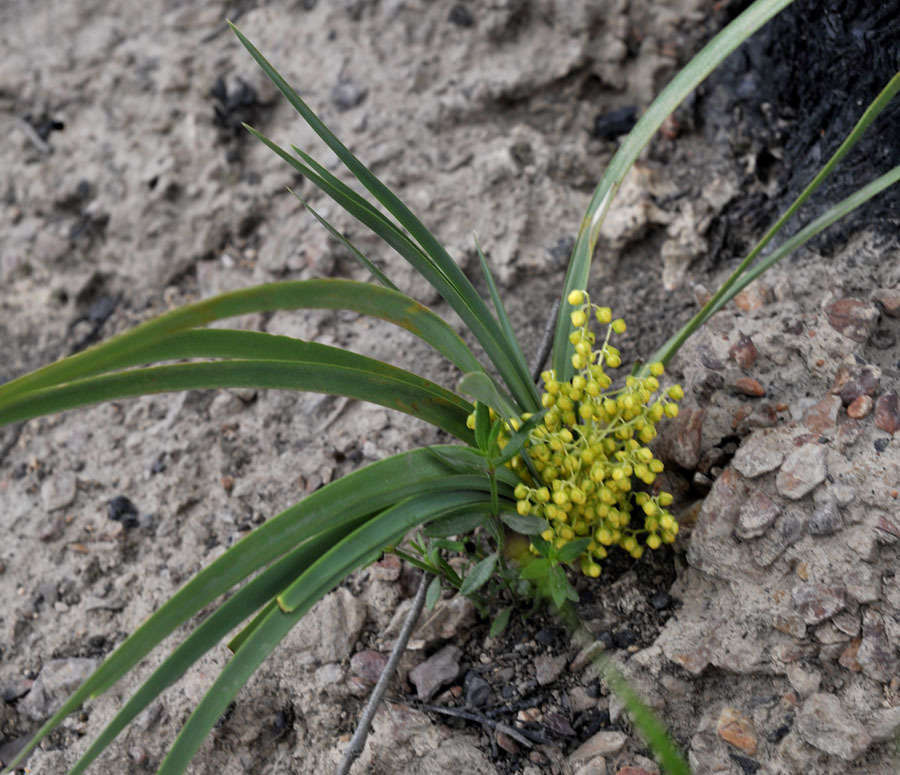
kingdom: Plantae
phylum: Tracheophyta
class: Liliopsida
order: Asparagales
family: Asparagaceae
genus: Lomandra
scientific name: Lomandra filiformis
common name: Wattle mat-rush
